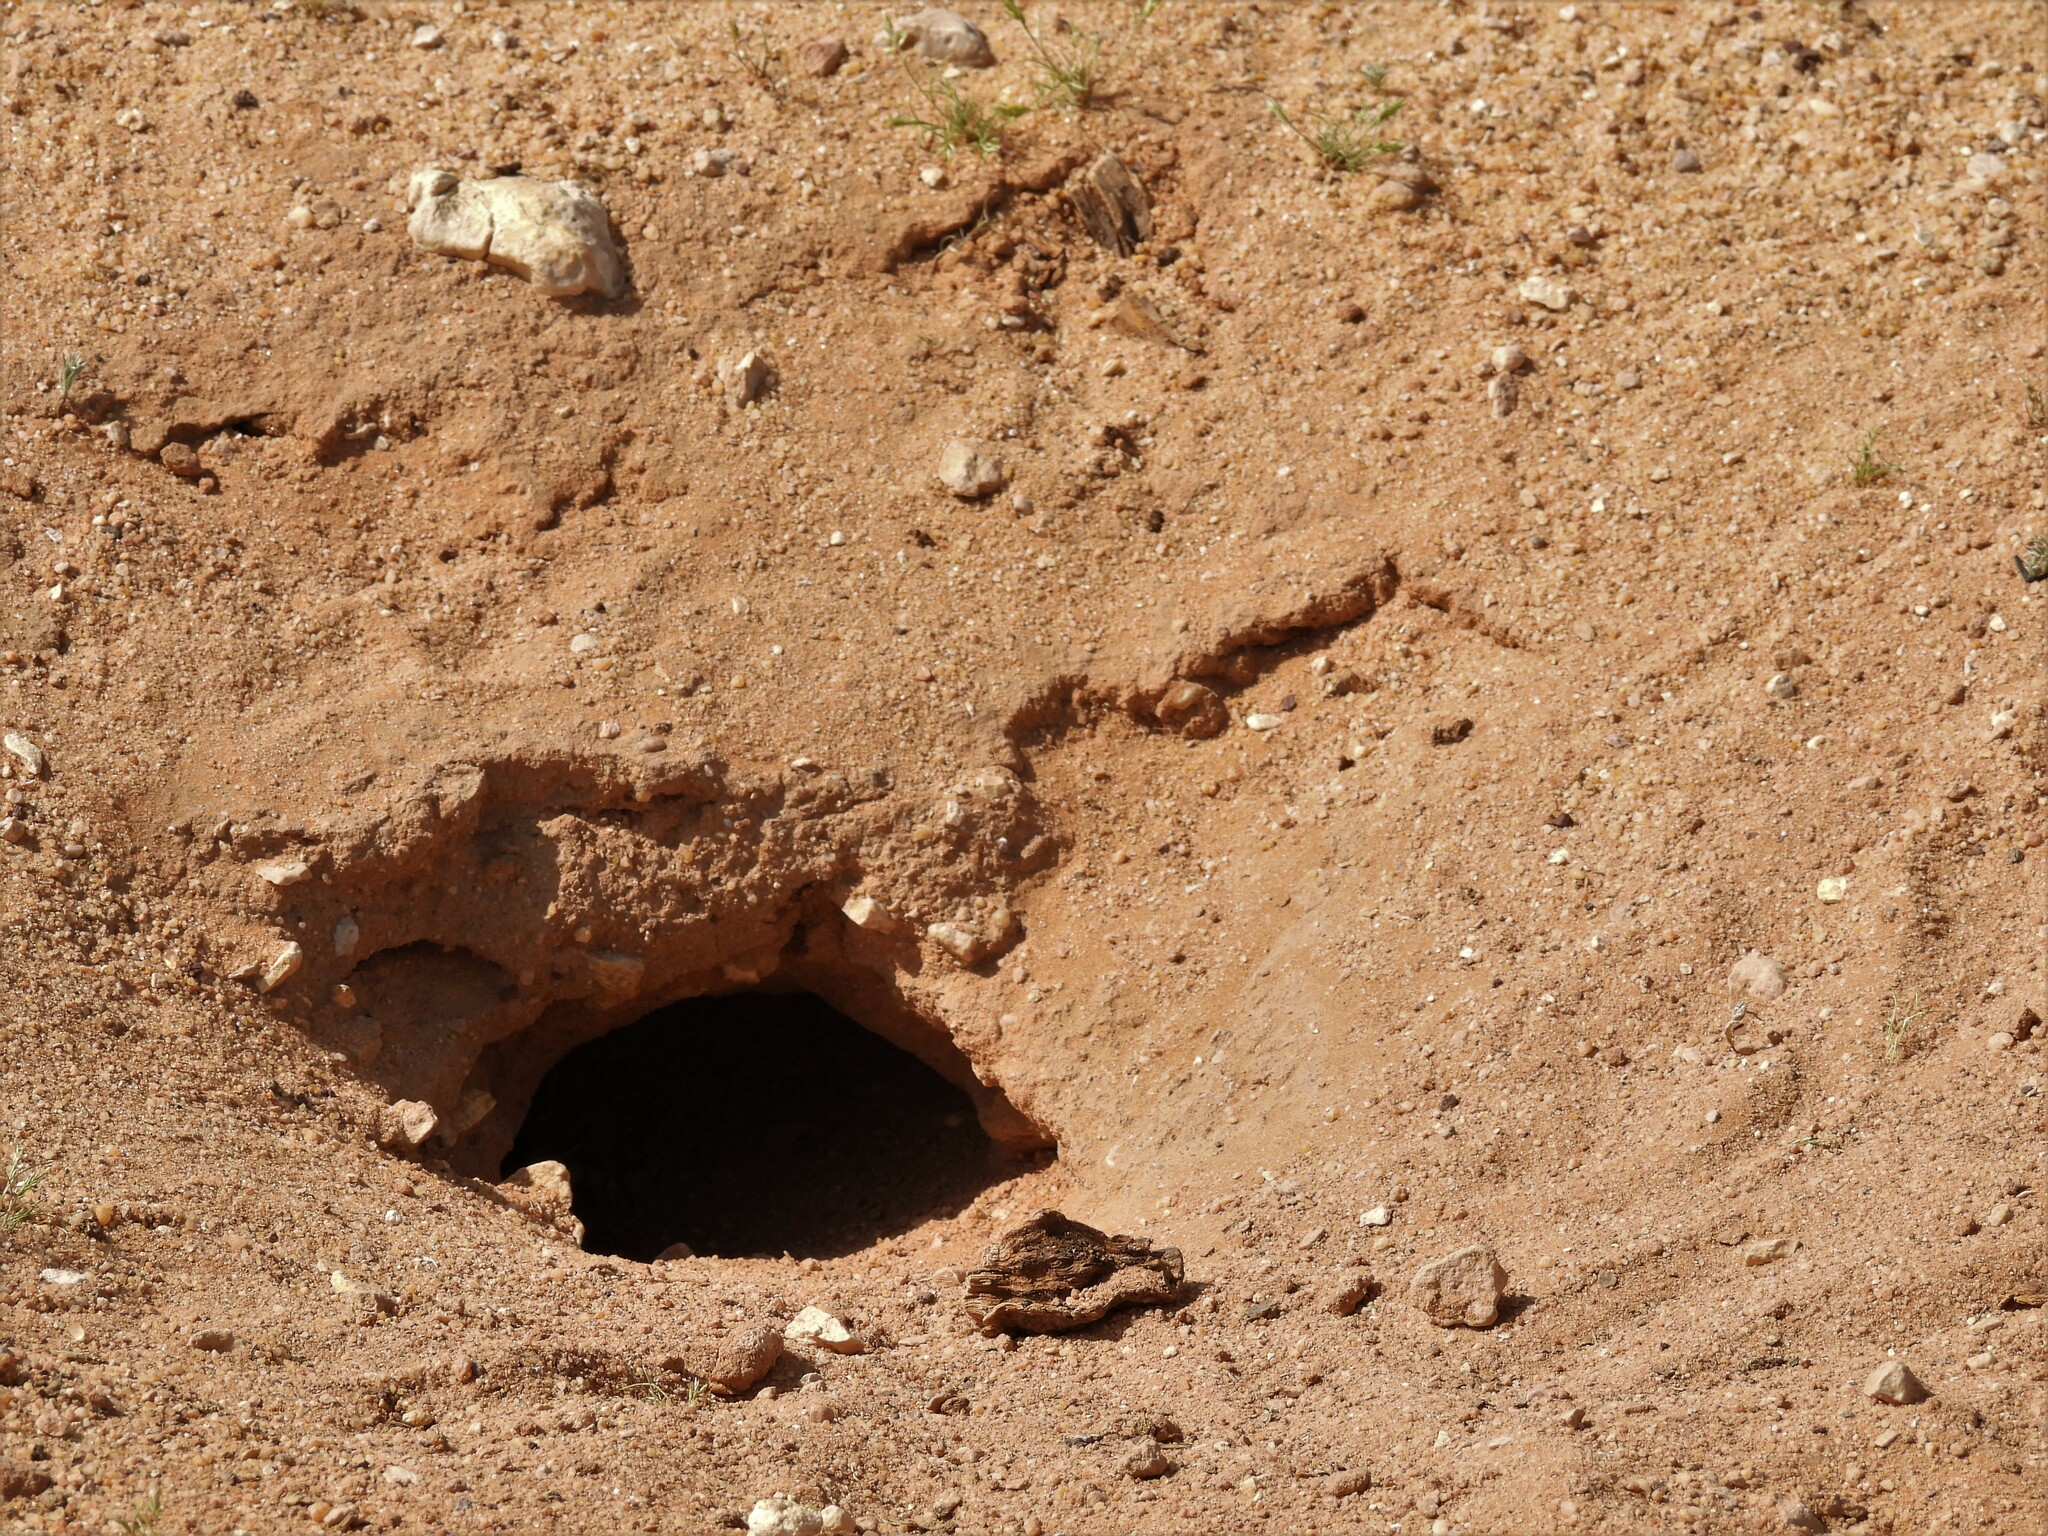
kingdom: Animalia
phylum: Chordata
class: Squamata
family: Agamidae
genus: Uromastyx
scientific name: Uromastyx aegyptia
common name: Egyptian mastigure
